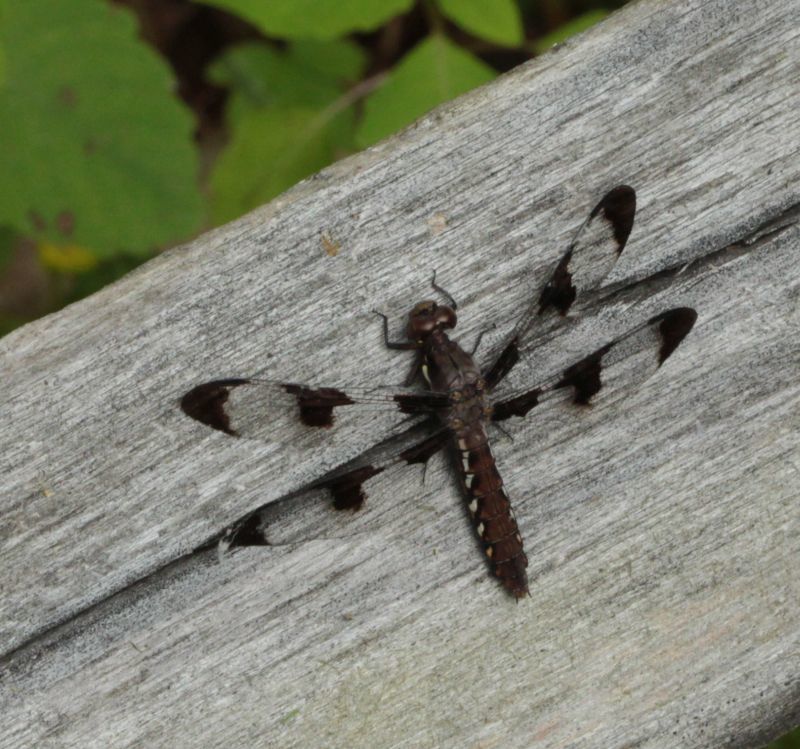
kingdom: Animalia
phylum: Arthropoda
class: Insecta
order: Odonata
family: Libellulidae
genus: Plathemis
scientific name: Plathemis lydia
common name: Common whitetail
